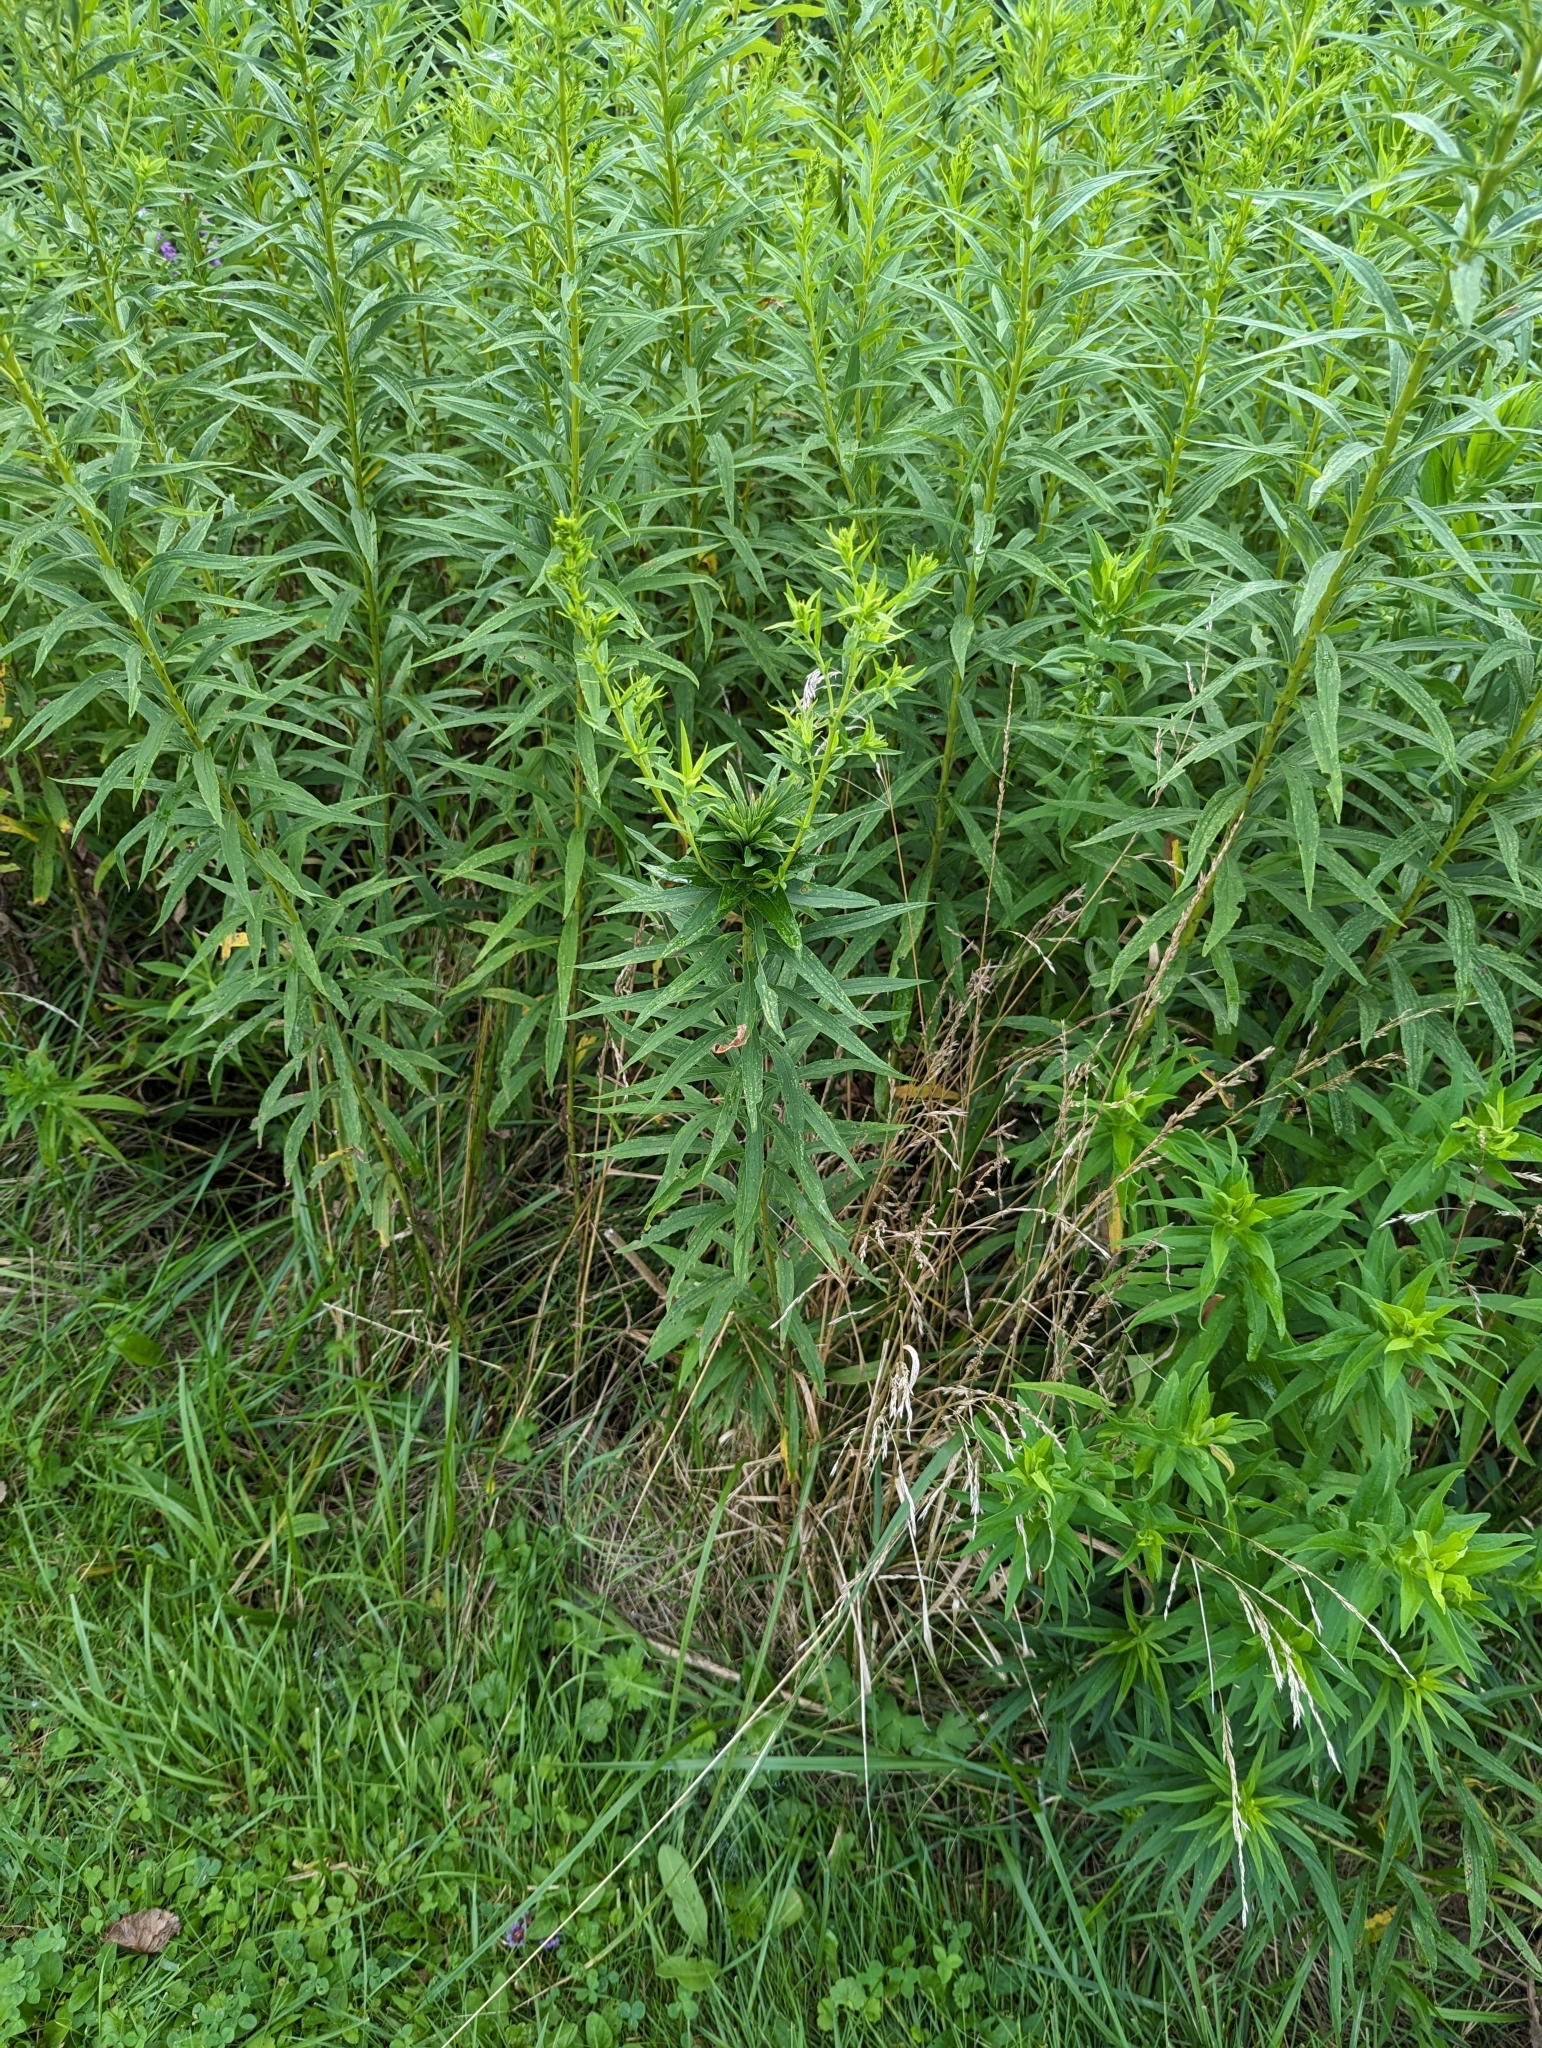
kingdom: Animalia
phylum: Arthropoda
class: Insecta
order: Diptera
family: Cecidomyiidae
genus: Rhopalomyia
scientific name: Rhopalomyia solidaginis
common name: Goldenrod bunch gall midge
